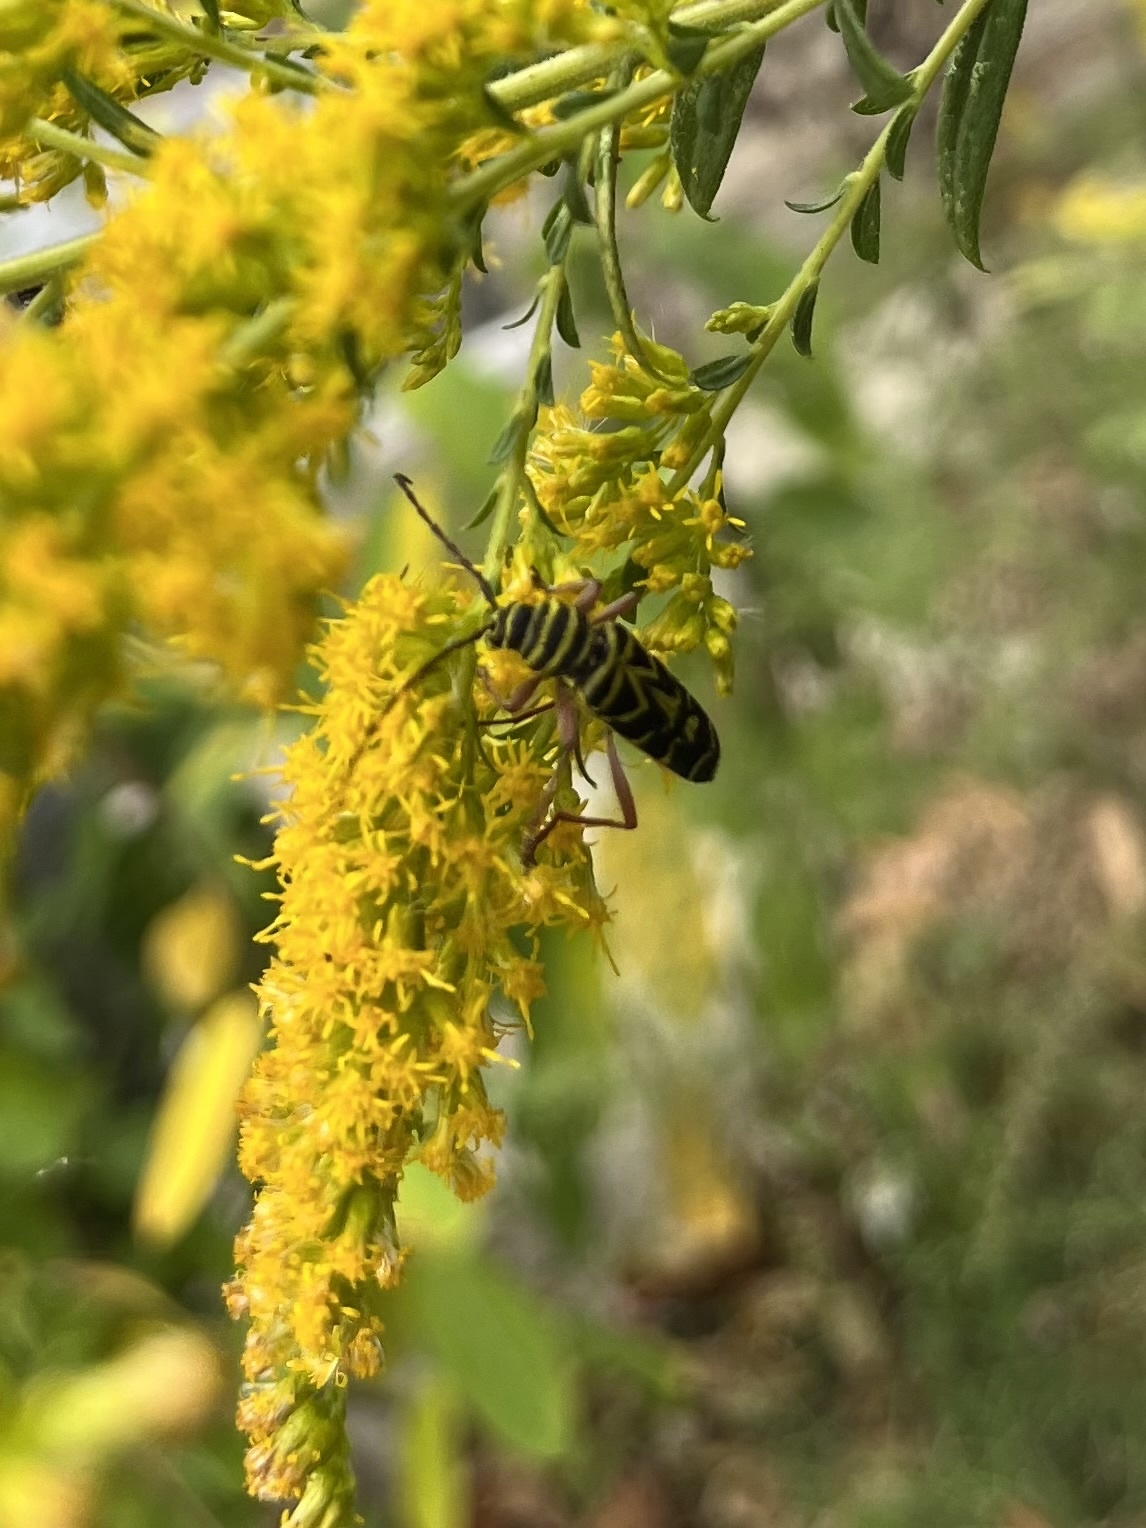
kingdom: Animalia
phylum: Arthropoda
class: Insecta
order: Coleoptera
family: Cerambycidae
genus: Megacyllene
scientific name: Megacyllene robiniae
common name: Locust borer
